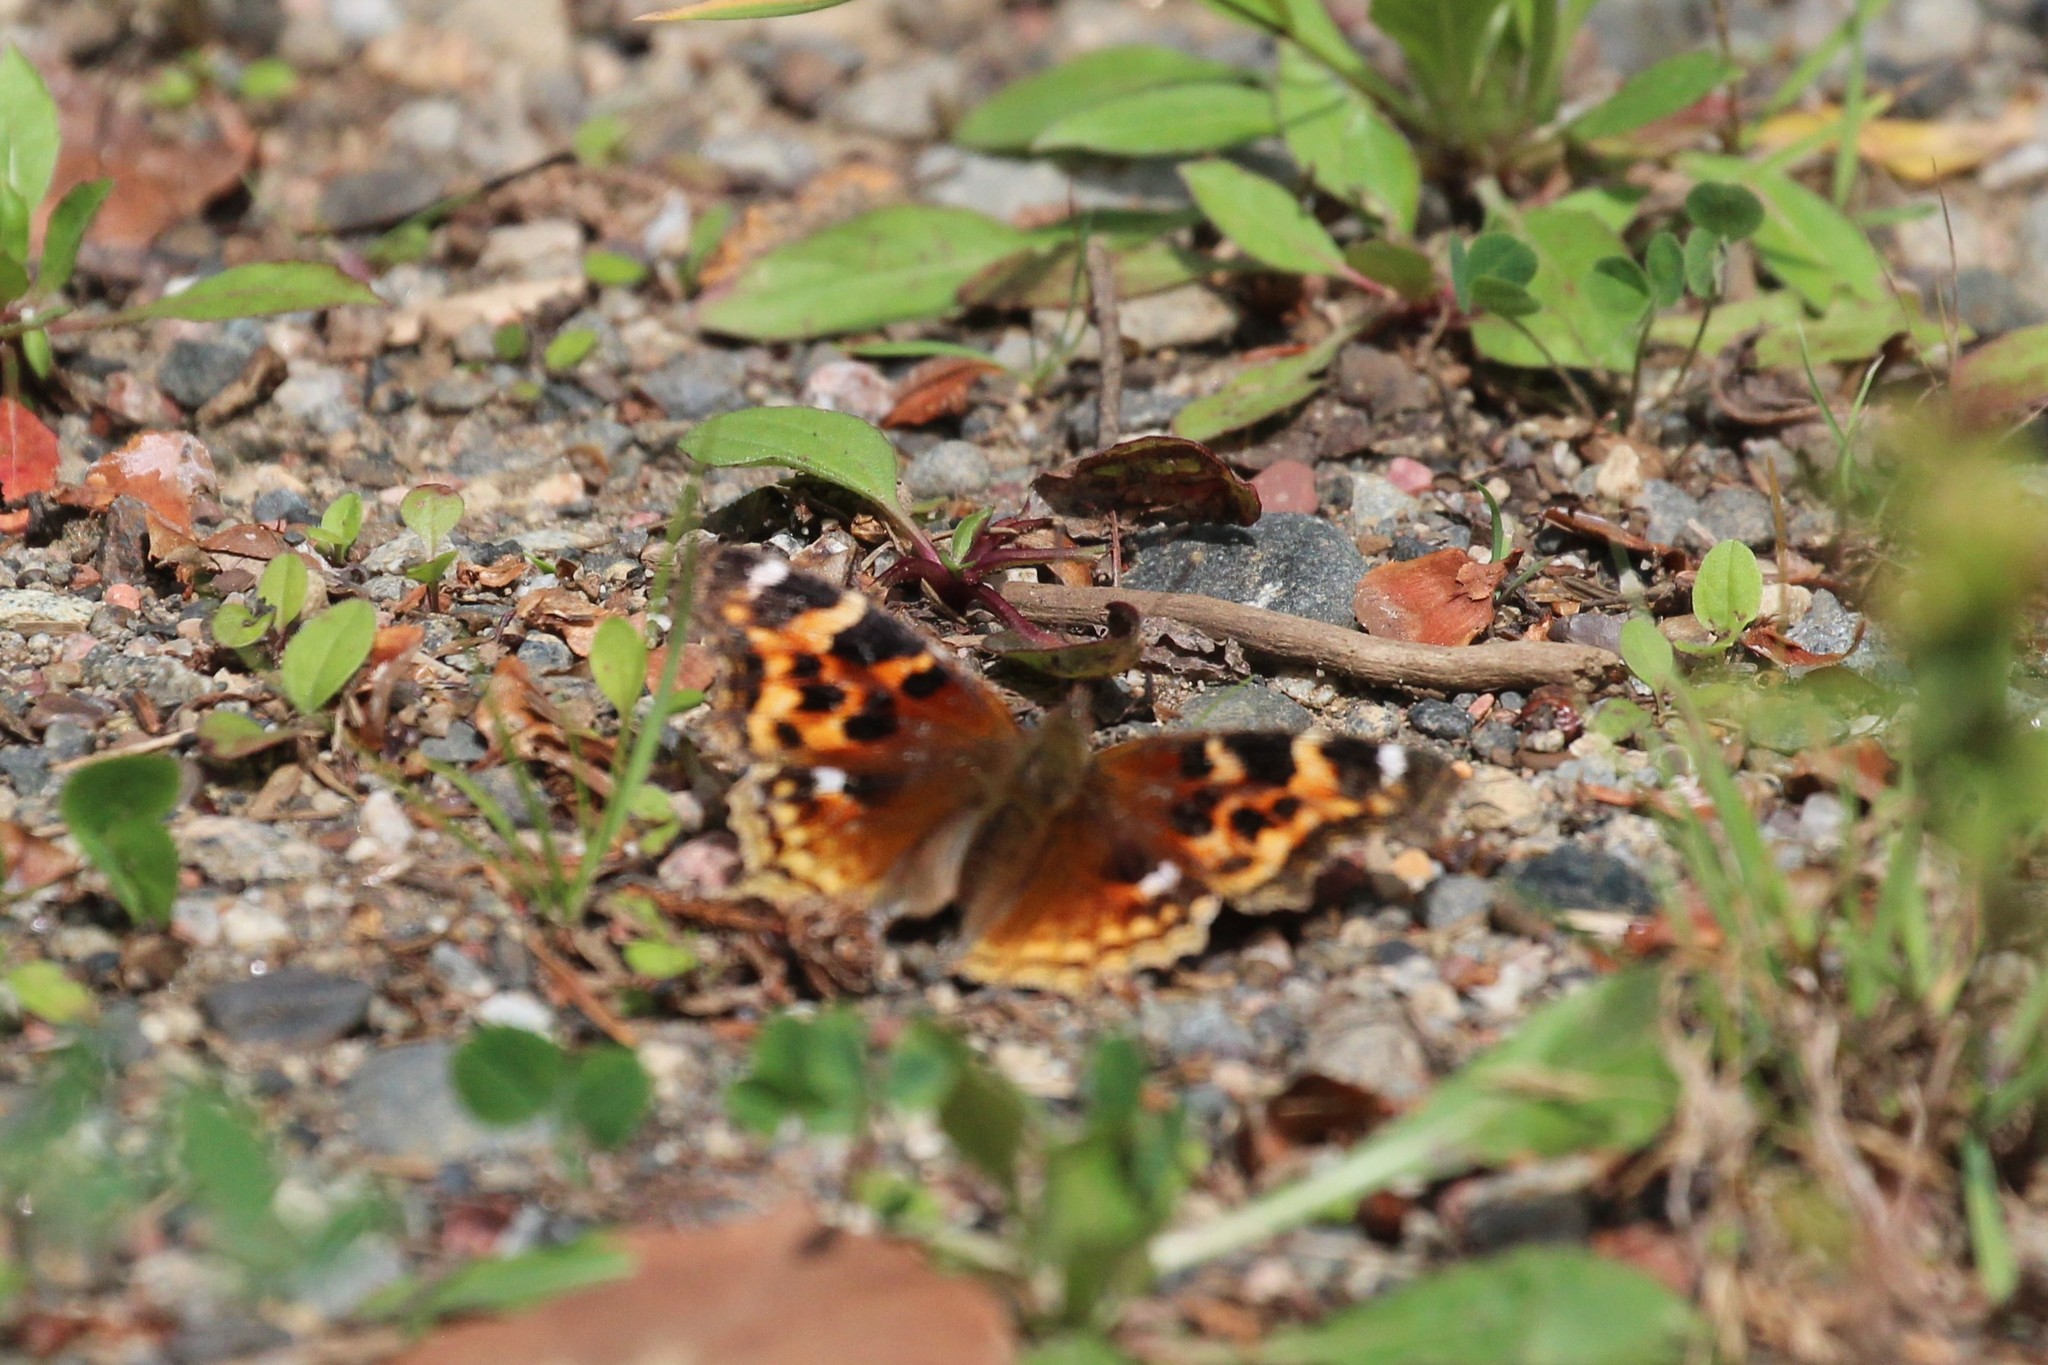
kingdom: Animalia
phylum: Arthropoda
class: Insecta
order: Lepidoptera
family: Nymphalidae
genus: Polygonia
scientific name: Polygonia vaualbum
